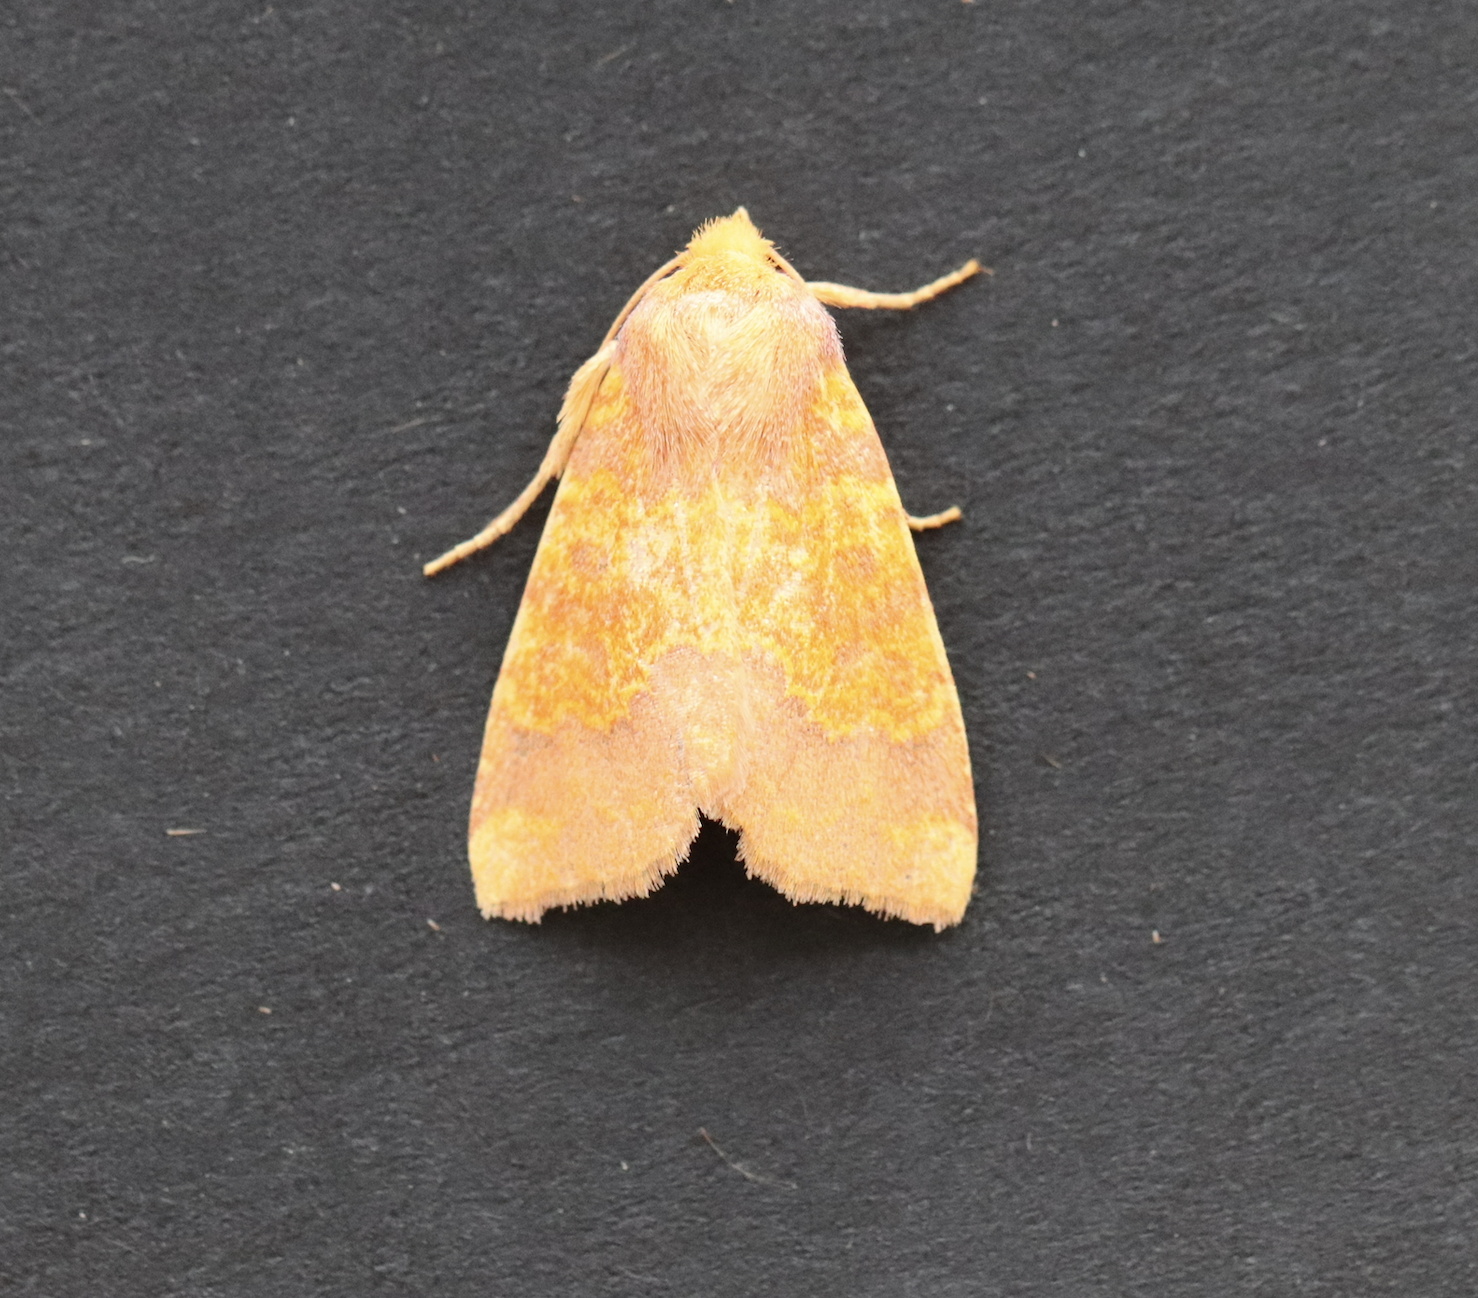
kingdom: Animalia
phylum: Arthropoda
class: Insecta
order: Lepidoptera
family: Noctuidae
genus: Tiliacea
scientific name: Tiliacea aurago
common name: Barred sallow
